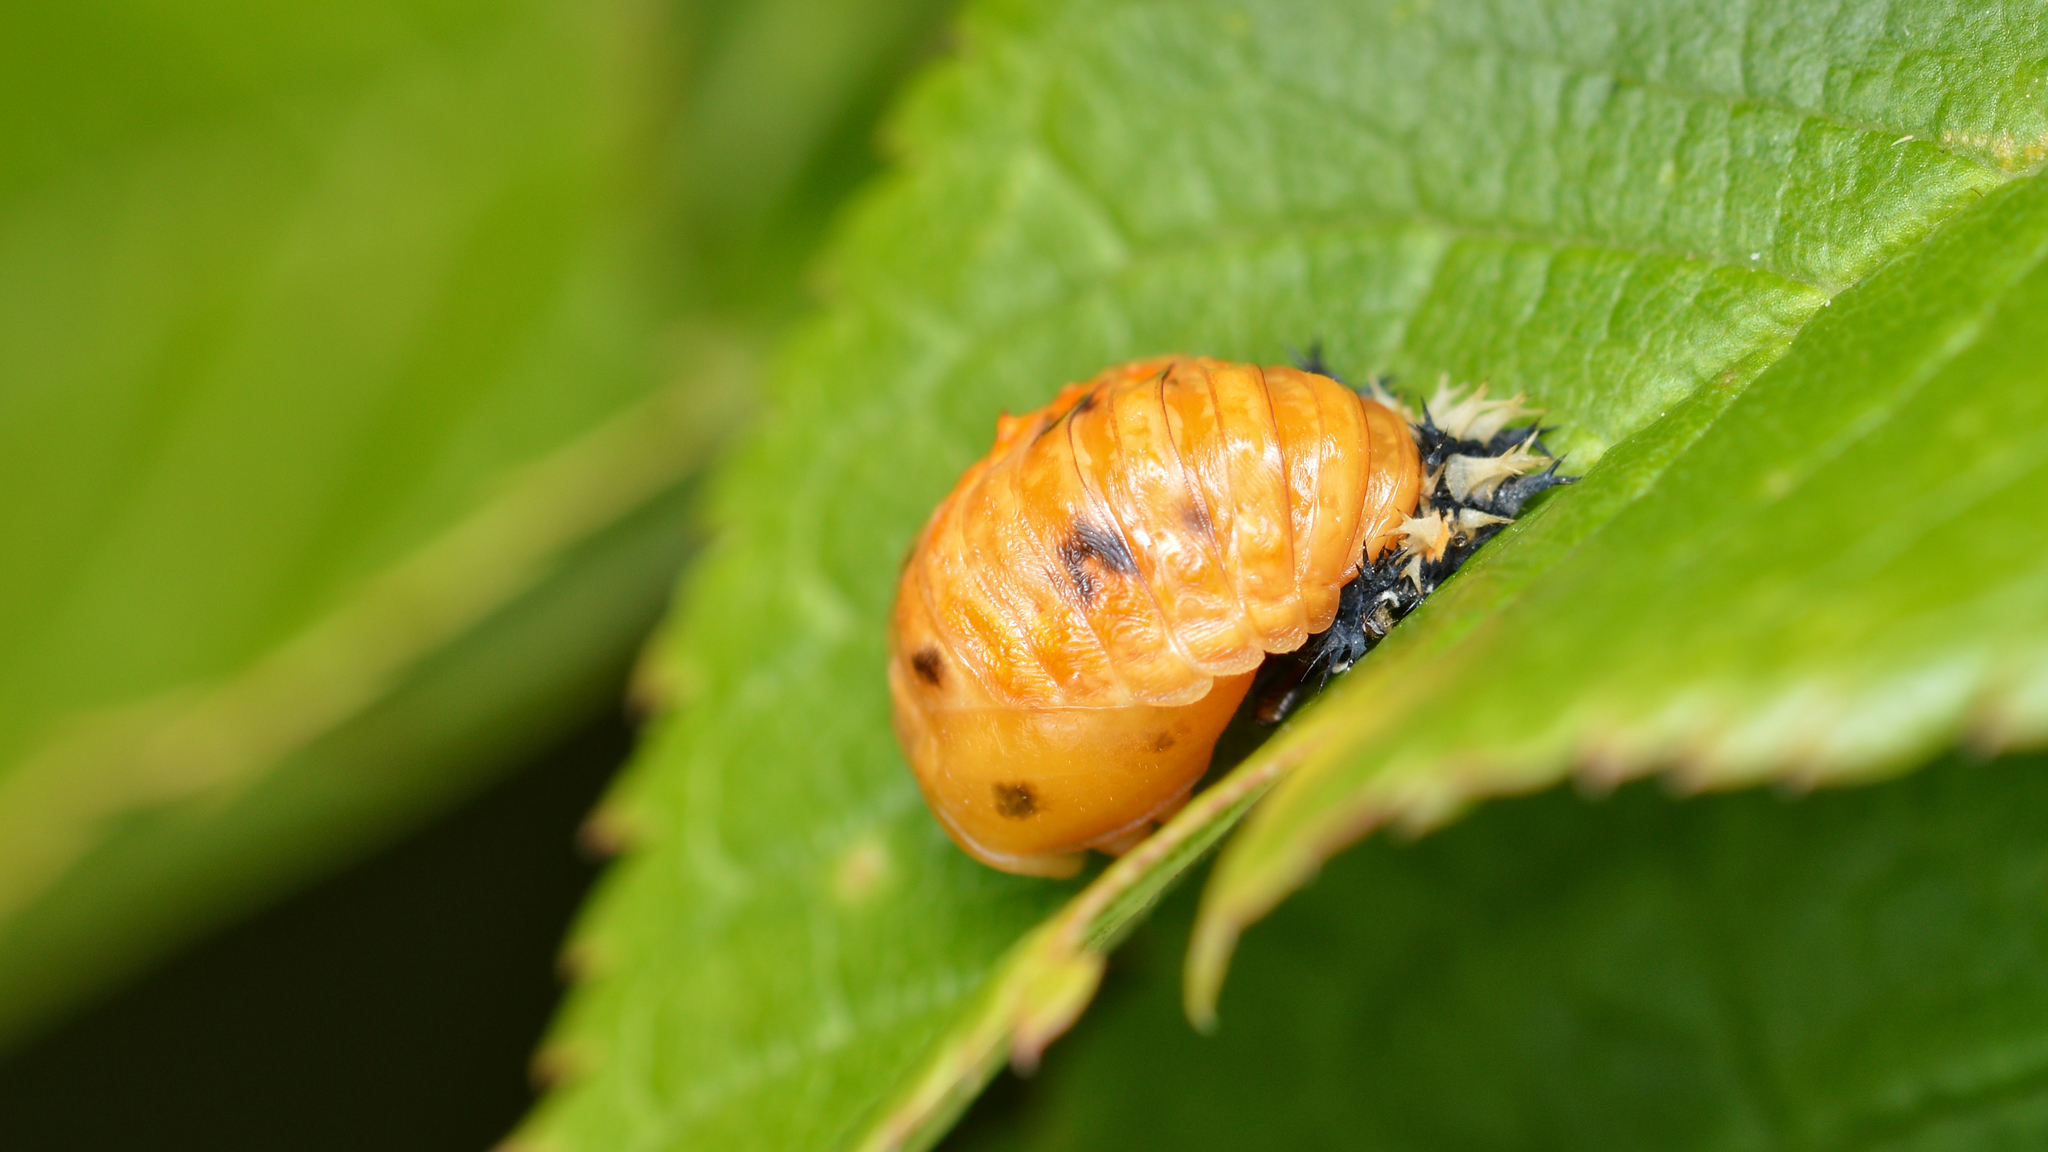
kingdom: Animalia
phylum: Arthropoda
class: Insecta
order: Coleoptera
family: Coccinellidae
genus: Harmonia
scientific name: Harmonia axyridis
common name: Harlequin ladybird
